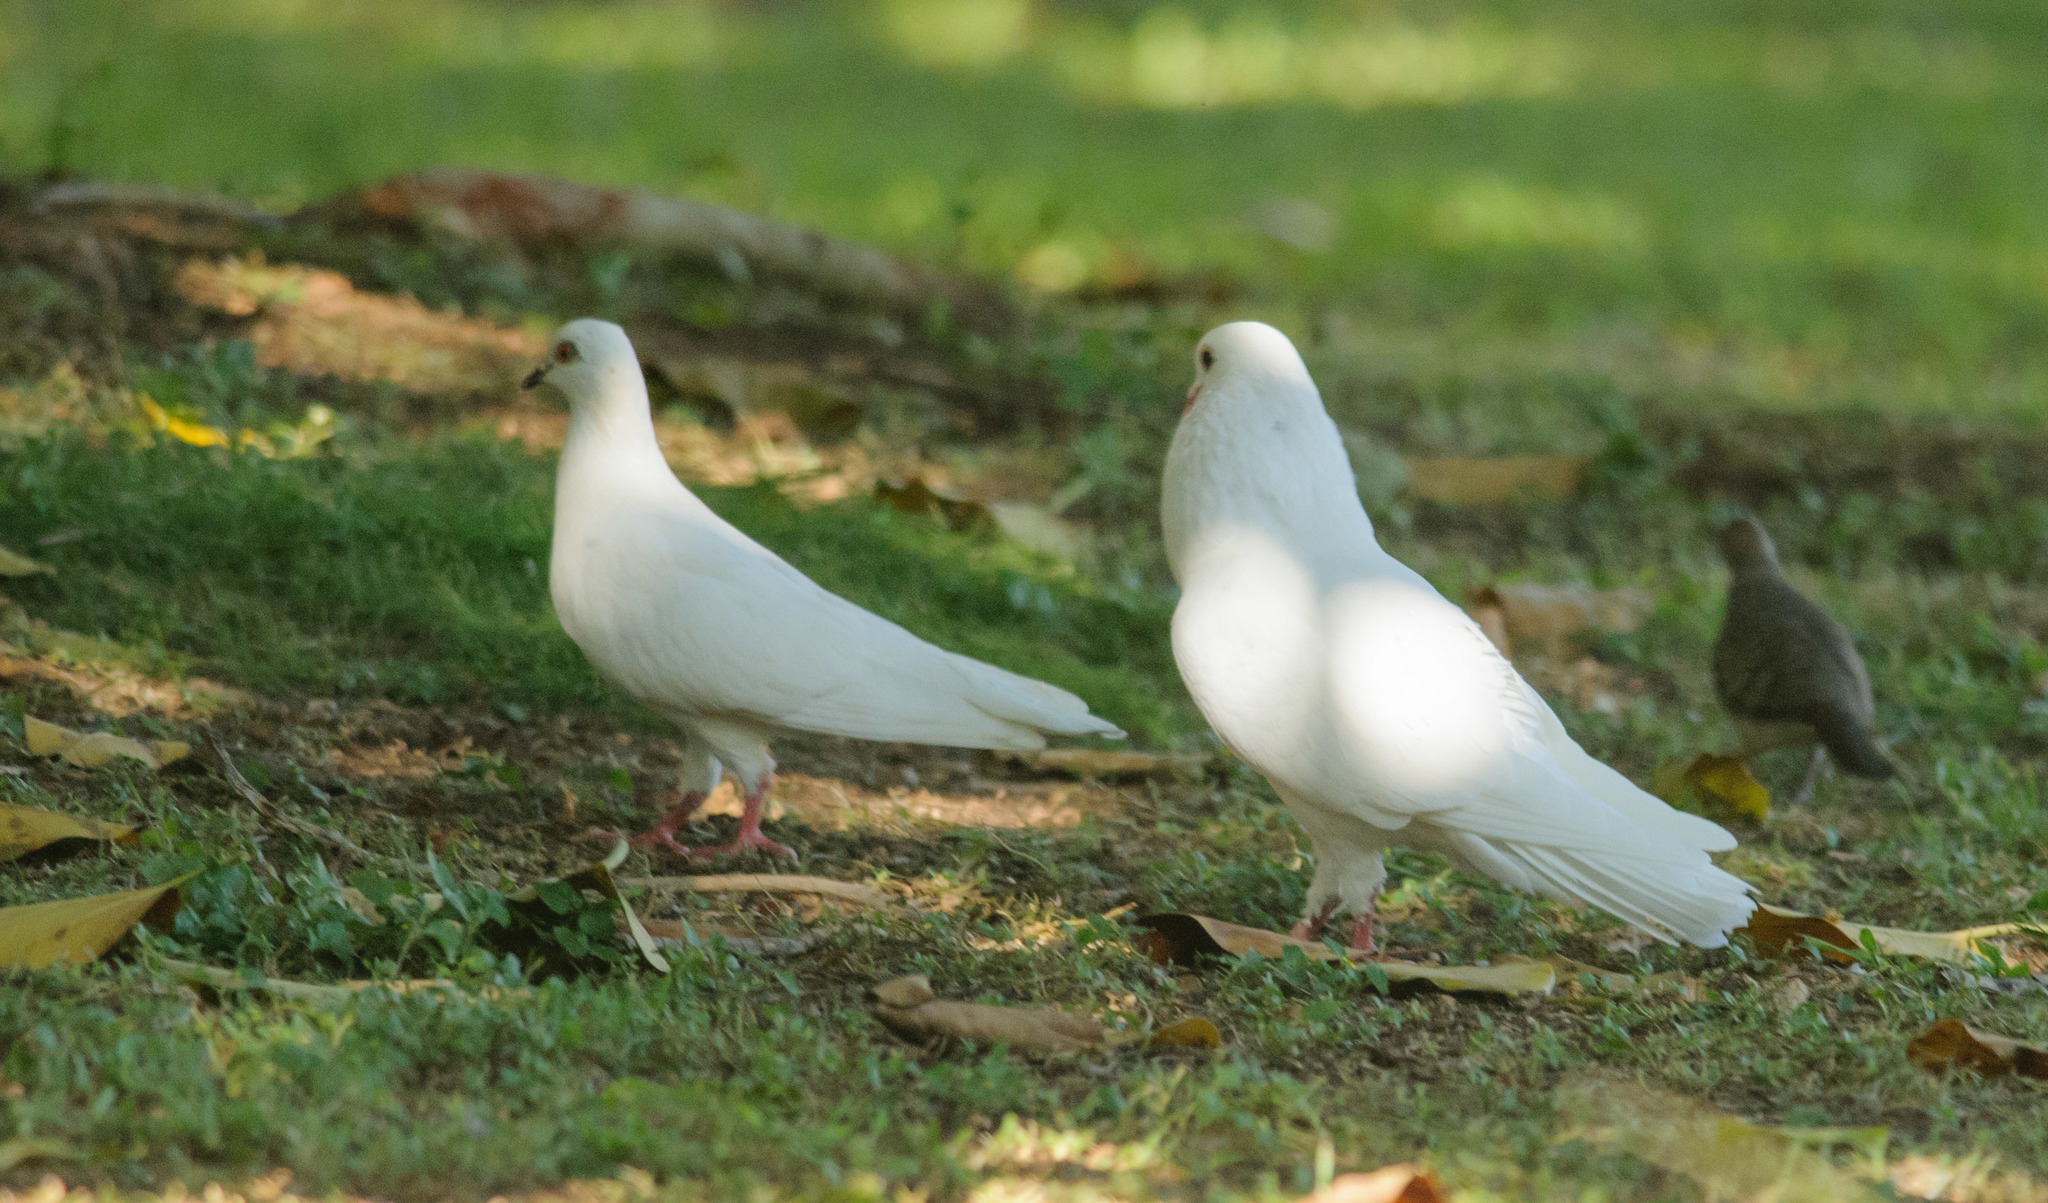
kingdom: Animalia
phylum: Chordata
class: Aves
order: Columbiformes
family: Columbidae
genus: Columba
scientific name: Columba livia
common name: Rock pigeon
